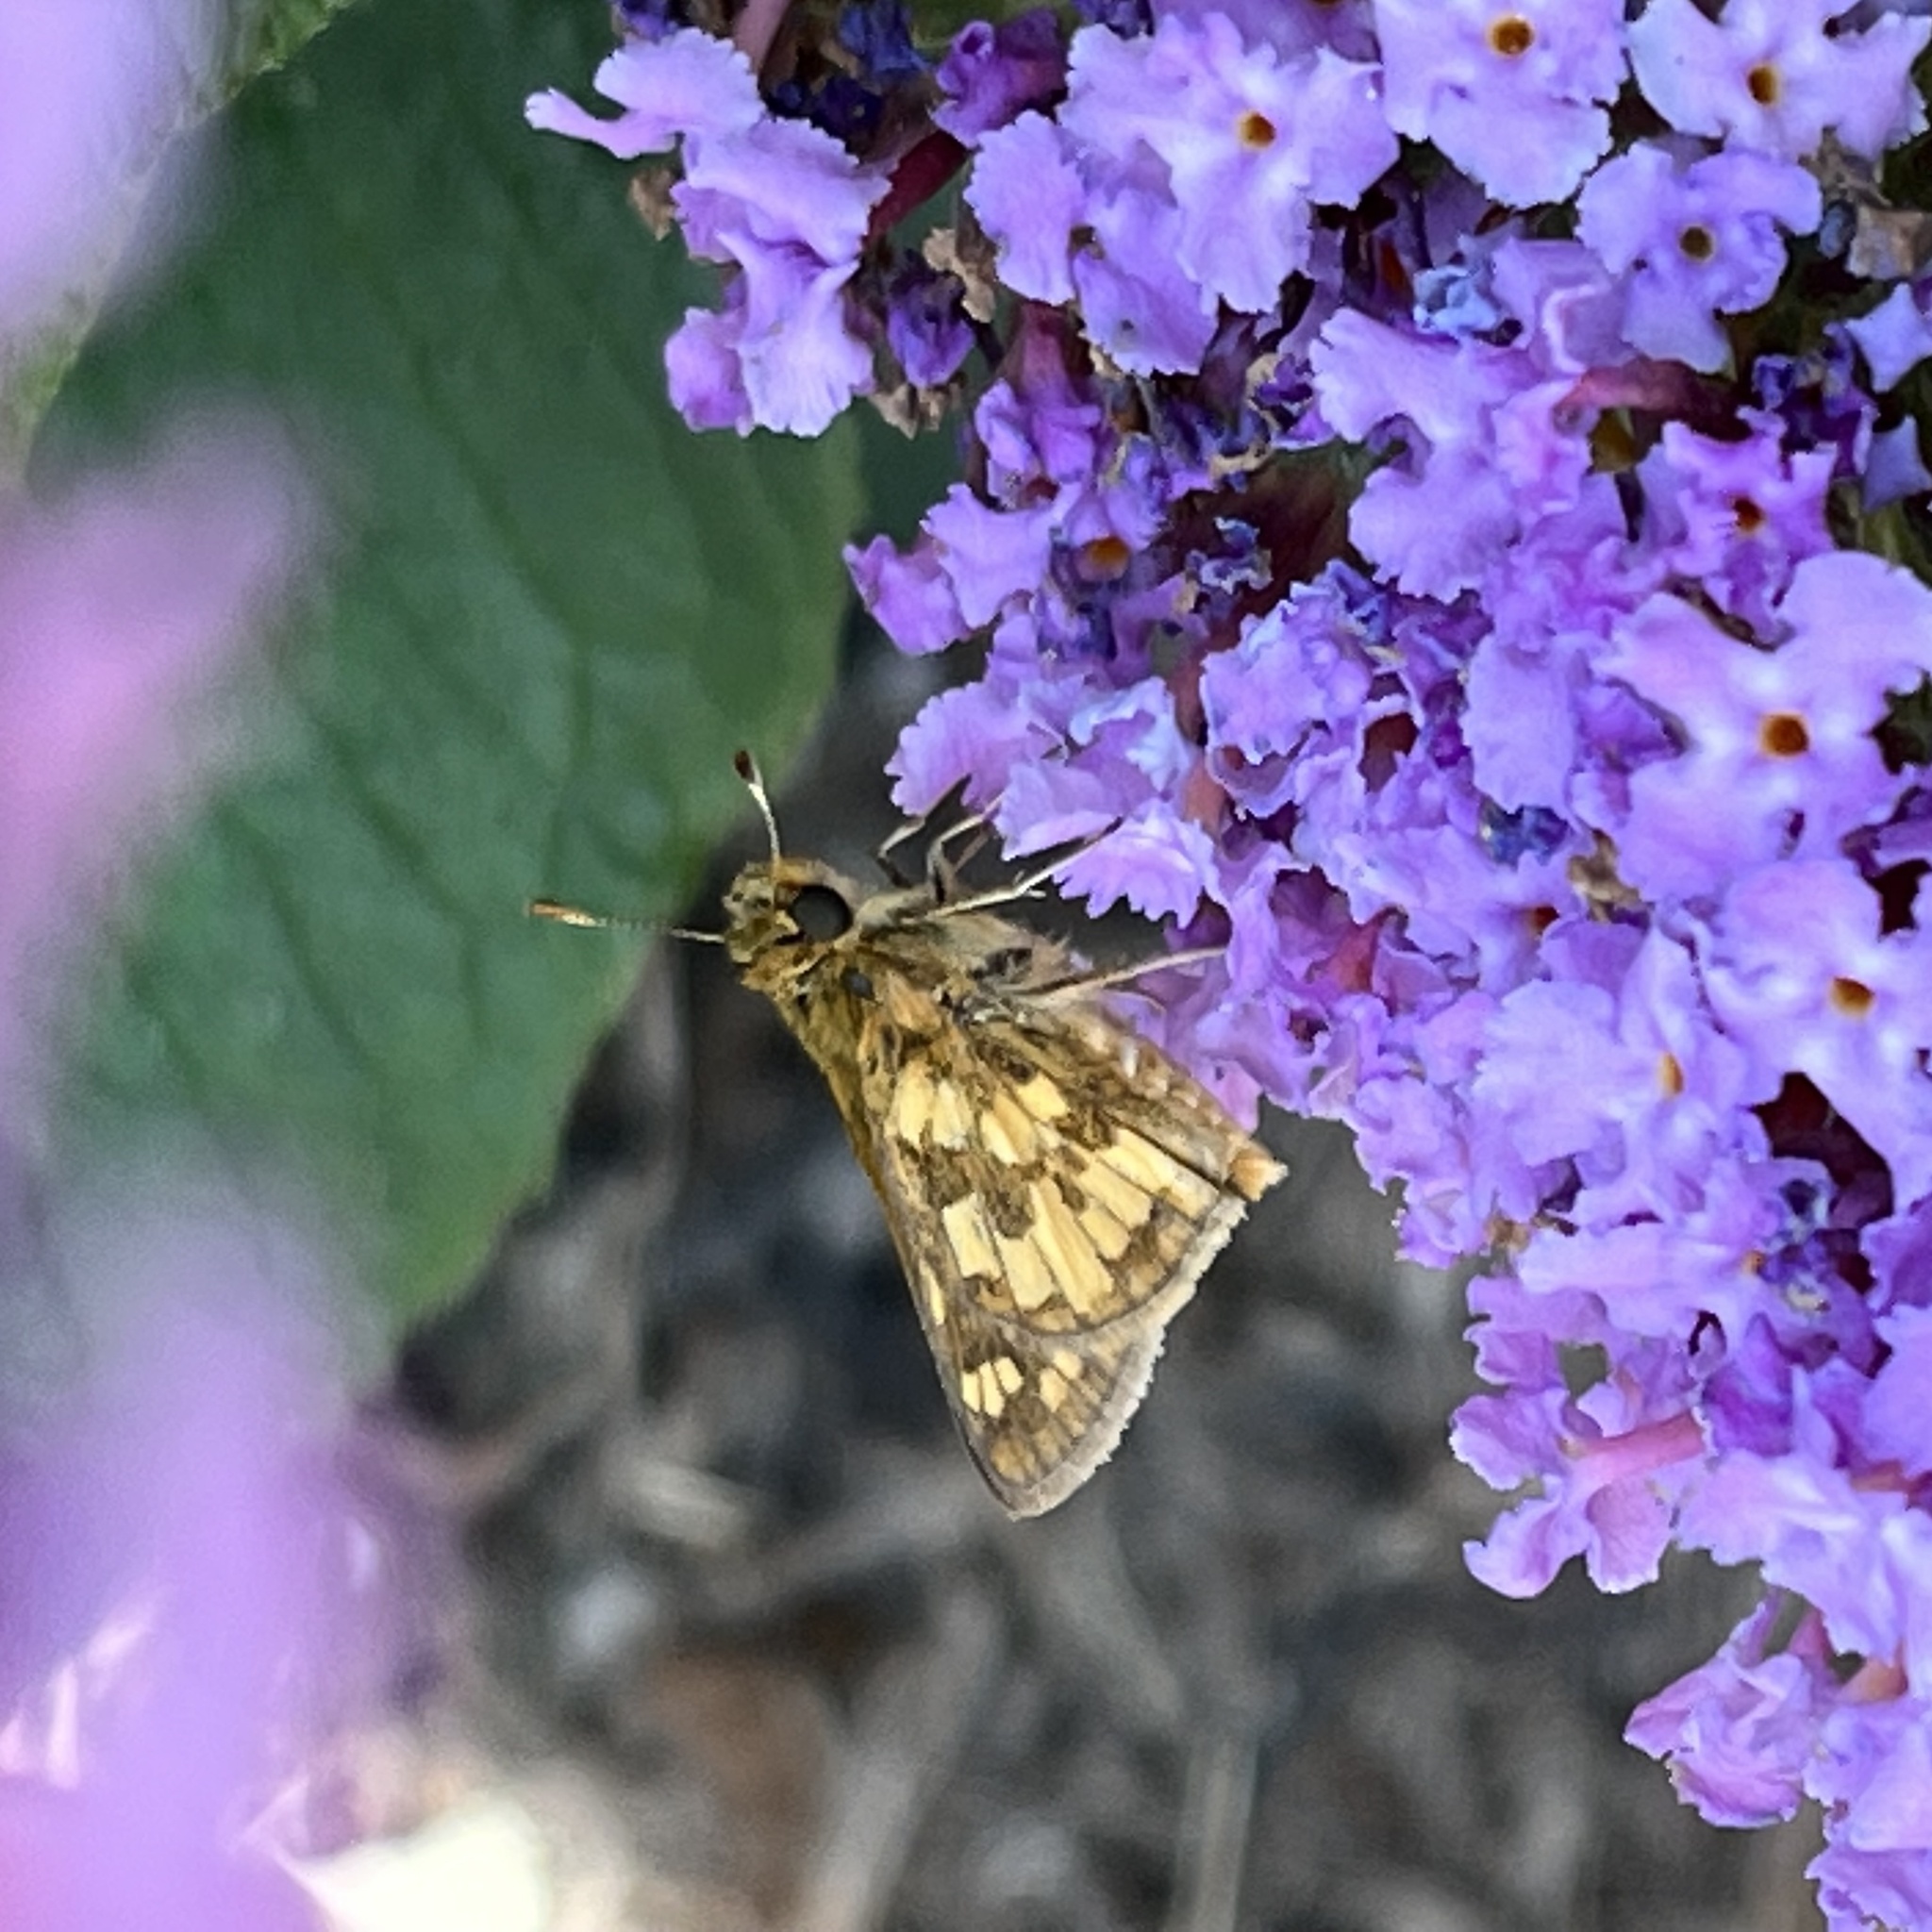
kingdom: Animalia
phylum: Arthropoda
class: Insecta
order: Lepidoptera
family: Hesperiidae
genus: Polites
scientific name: Polites coras
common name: Peck's skipper
